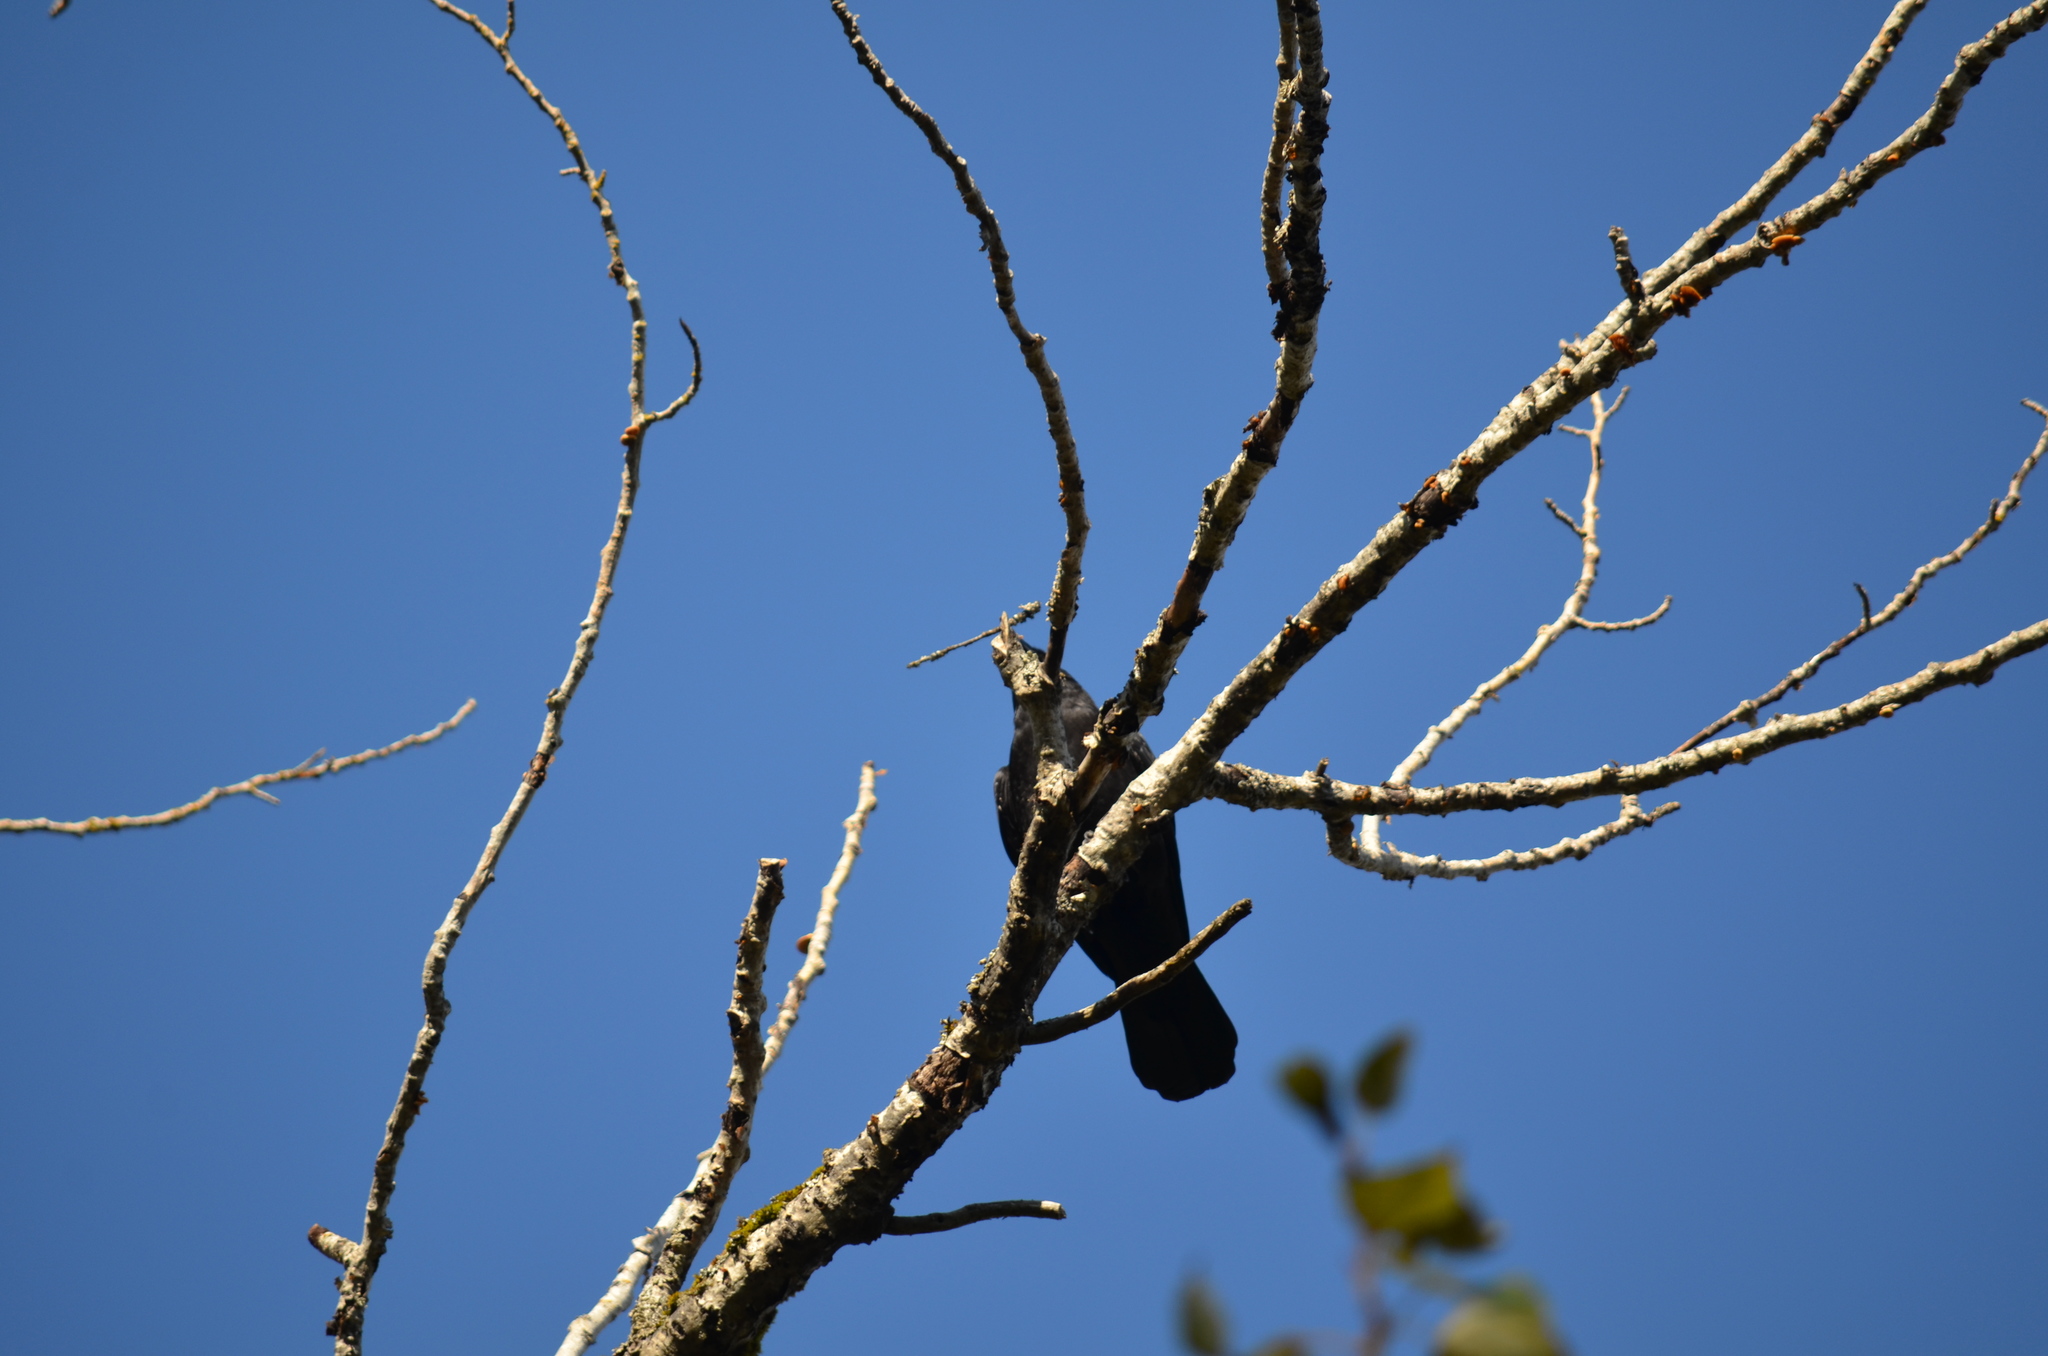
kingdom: Animalia
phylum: Chordata
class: Aves
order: Passeriformes
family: Corvidae
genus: Corvus
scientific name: Corvus brachyrhynchos
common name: American crow
